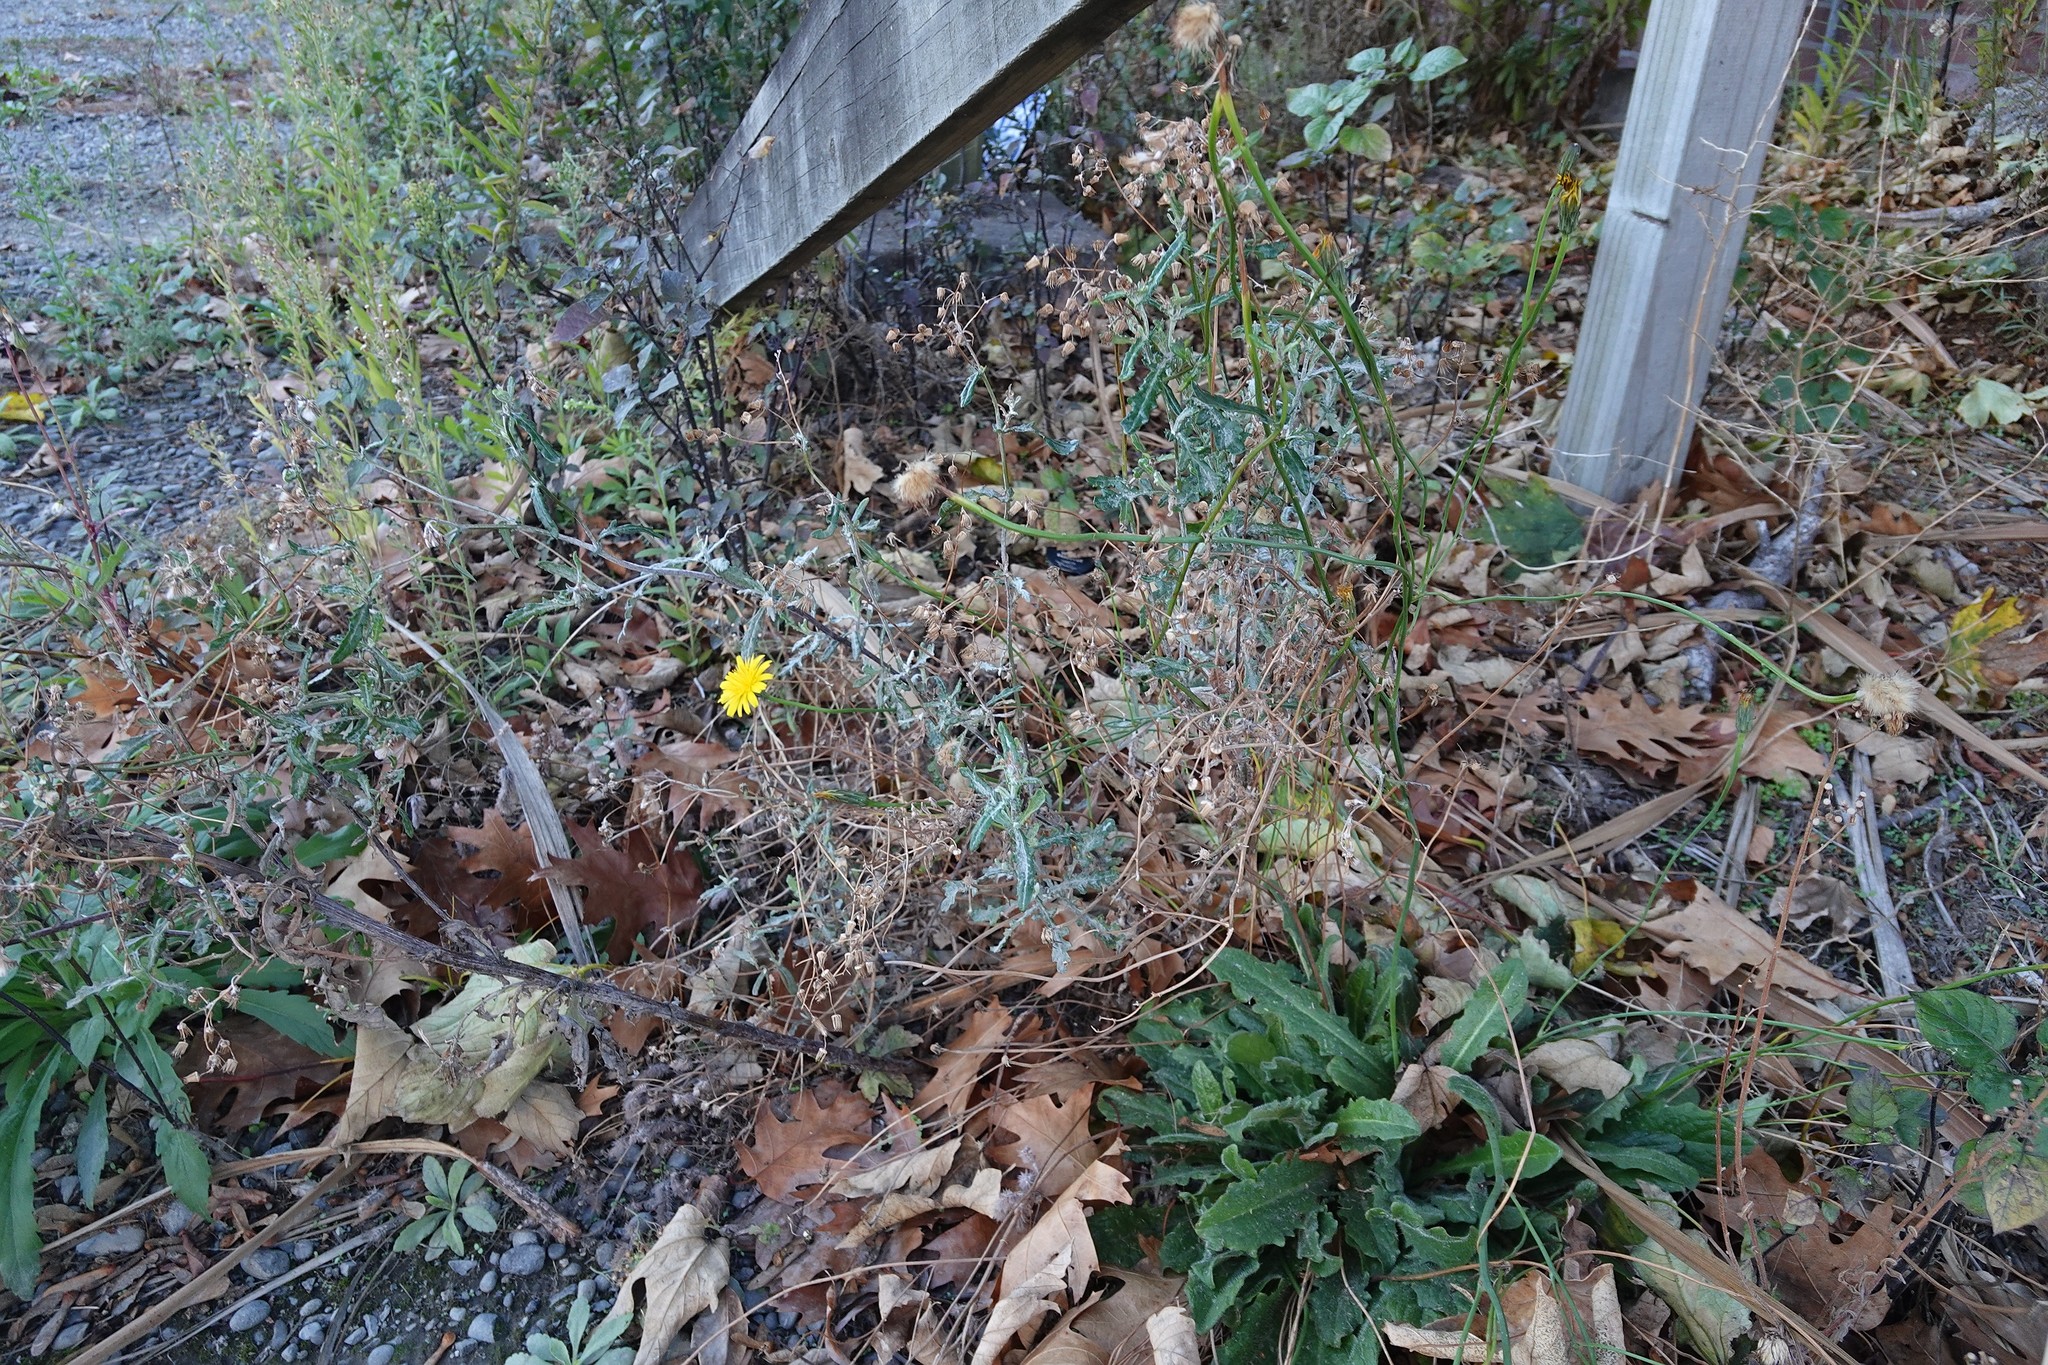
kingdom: Plantae
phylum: Tracheophyta
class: Magnoliopsida
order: Asterales
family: Asteraceae
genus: Senecio
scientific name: Senecio glomeratus
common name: Cutleaf burnweed
